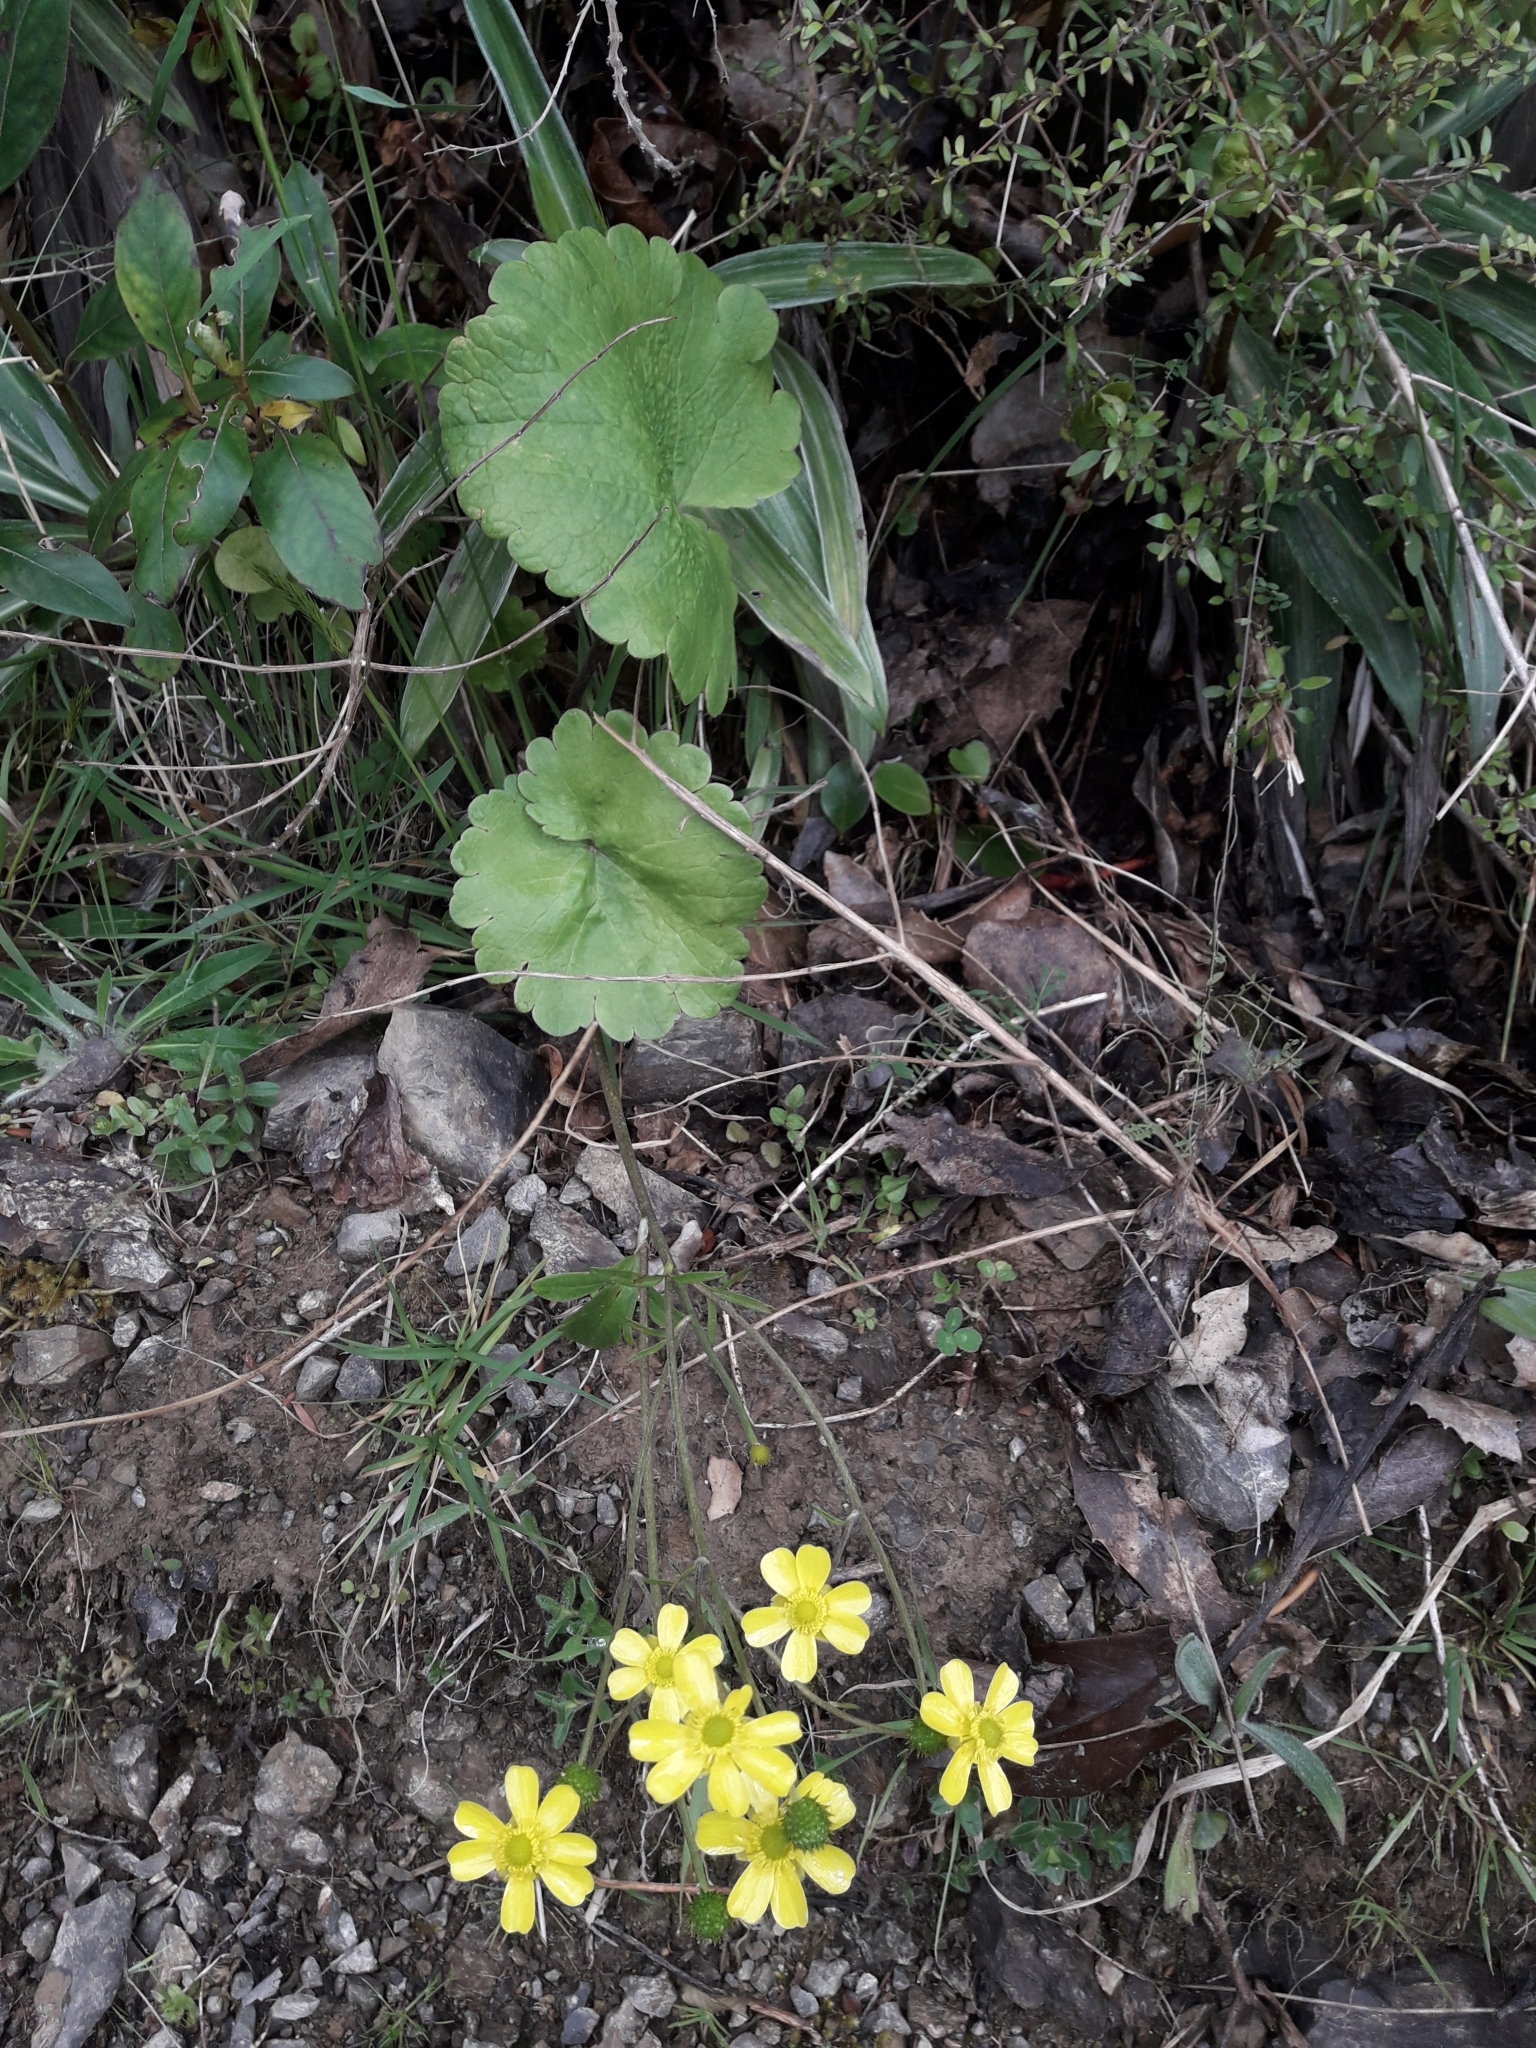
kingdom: Plantae
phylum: Tracheophyta
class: Magnoliopsida
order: Ranunculales
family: Ranunculaceae
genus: Ranunculus
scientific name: Ranunculus insignis
